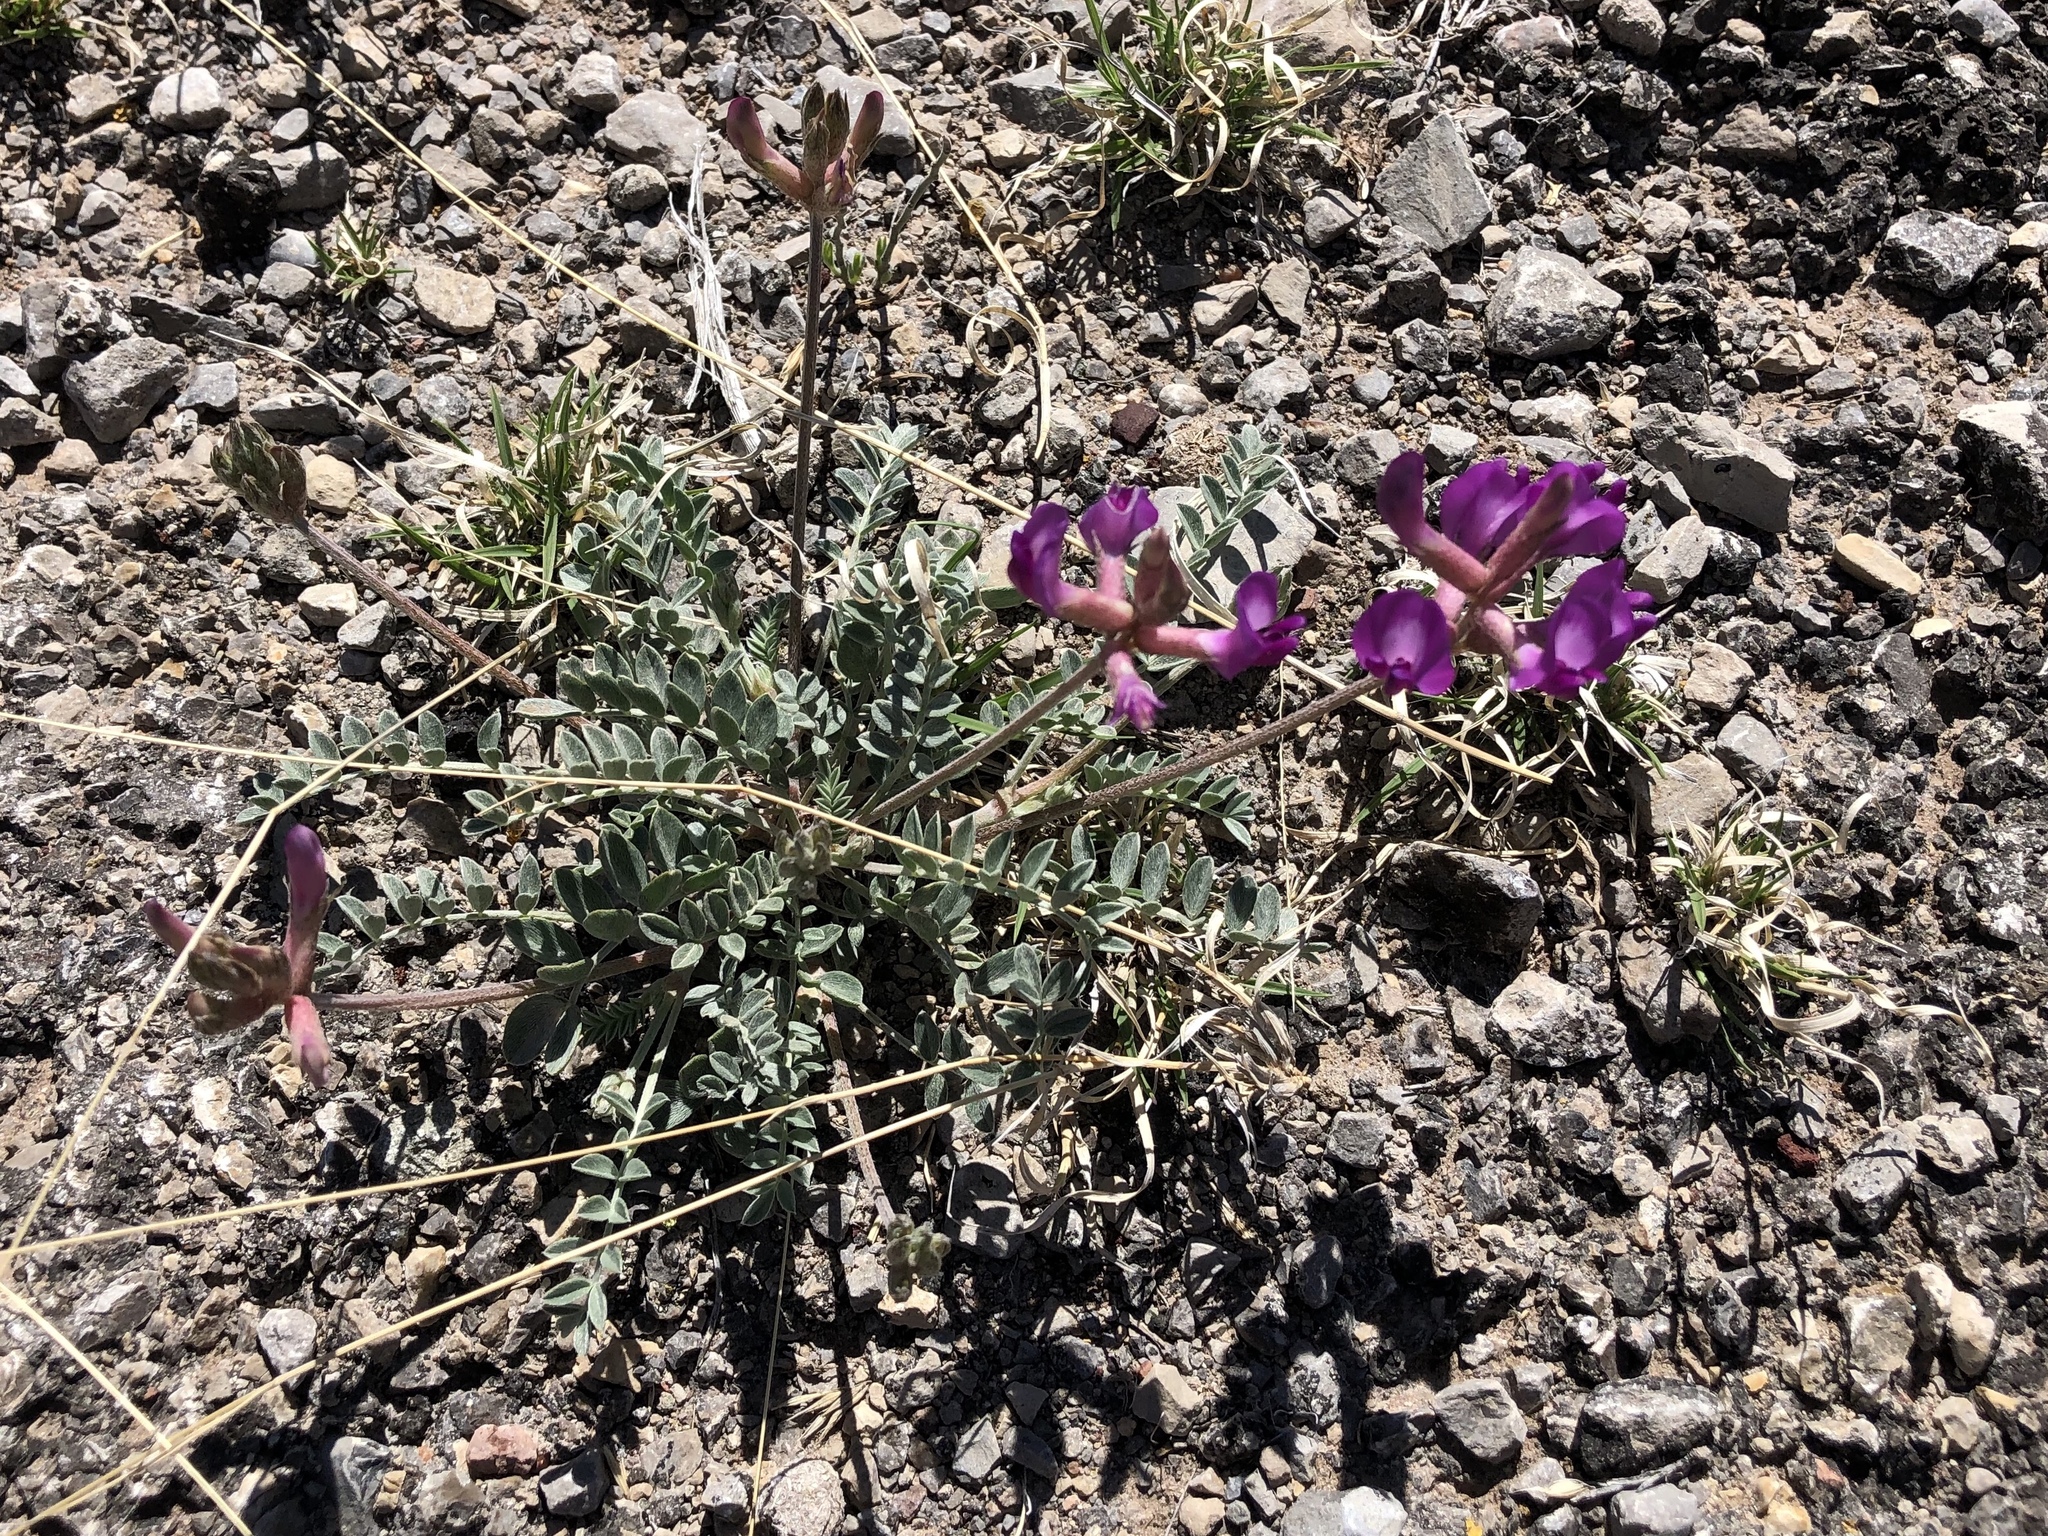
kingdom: Plantae
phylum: Tracheophyta
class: Magnoliopsida
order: Fabales
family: Fabaceae
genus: Astragalus
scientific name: Astragalus missouriensis
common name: Missouri milk-vetch
